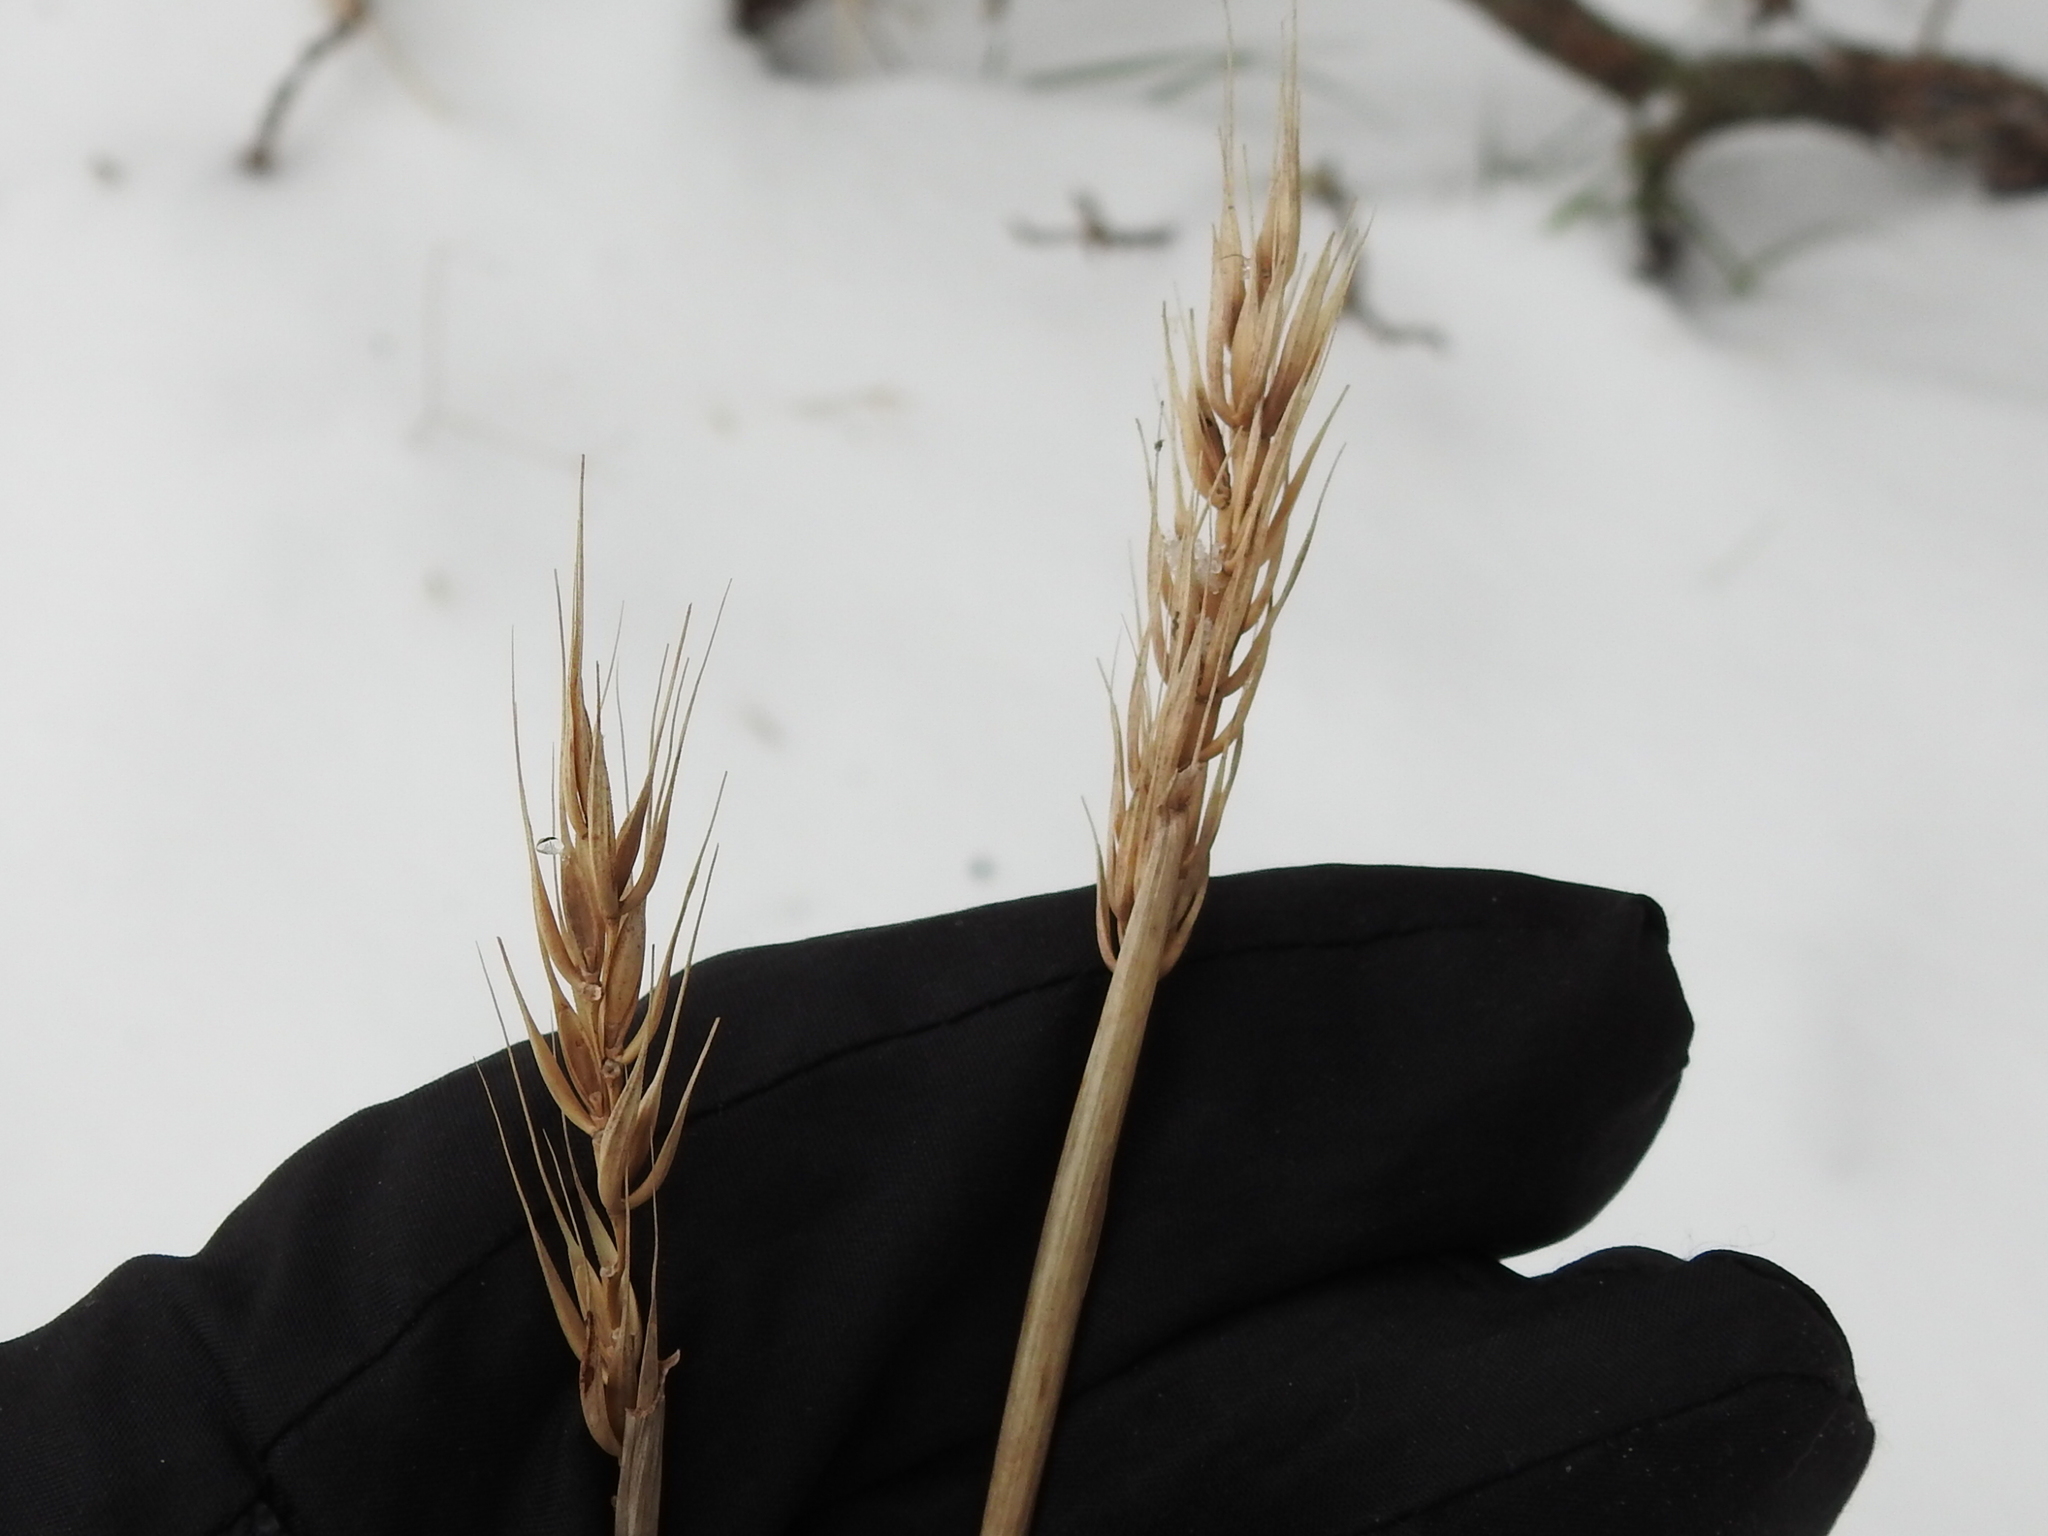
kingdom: Plantae
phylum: Tracheophyta
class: Liliopsida
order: Poales
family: Poaceae
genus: Elymus
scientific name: Elymus virginicus
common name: Common eastern wildrye
